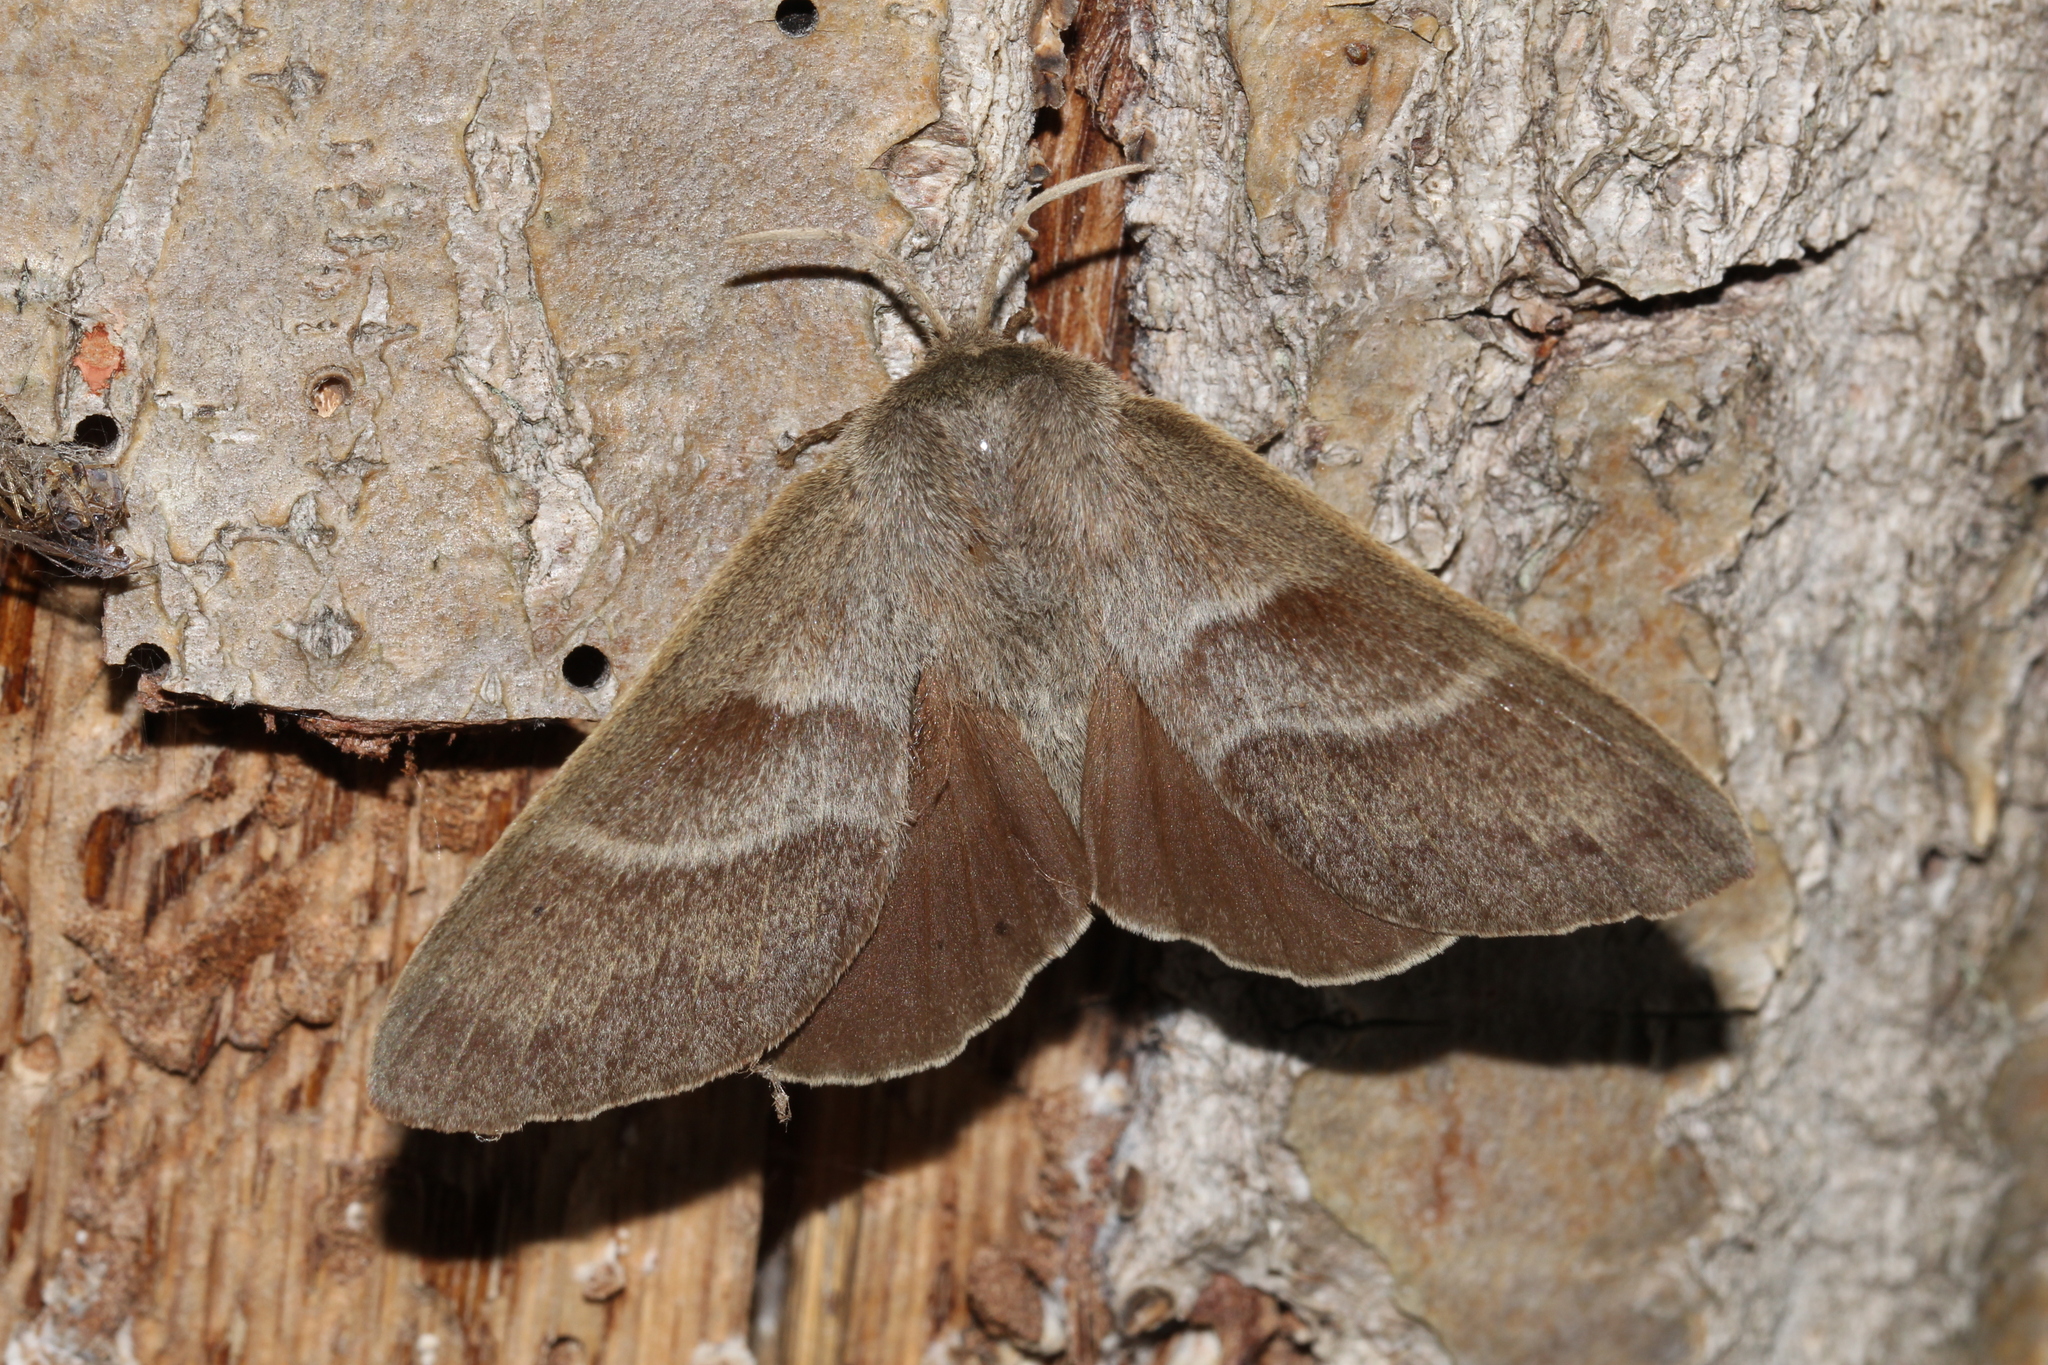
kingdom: Animalia
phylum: Arthropoda
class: Insecta
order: Lepidoptera
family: Lasiocampidae
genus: Macrothylacia
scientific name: Macrothylacia rubi
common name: Fox moth
